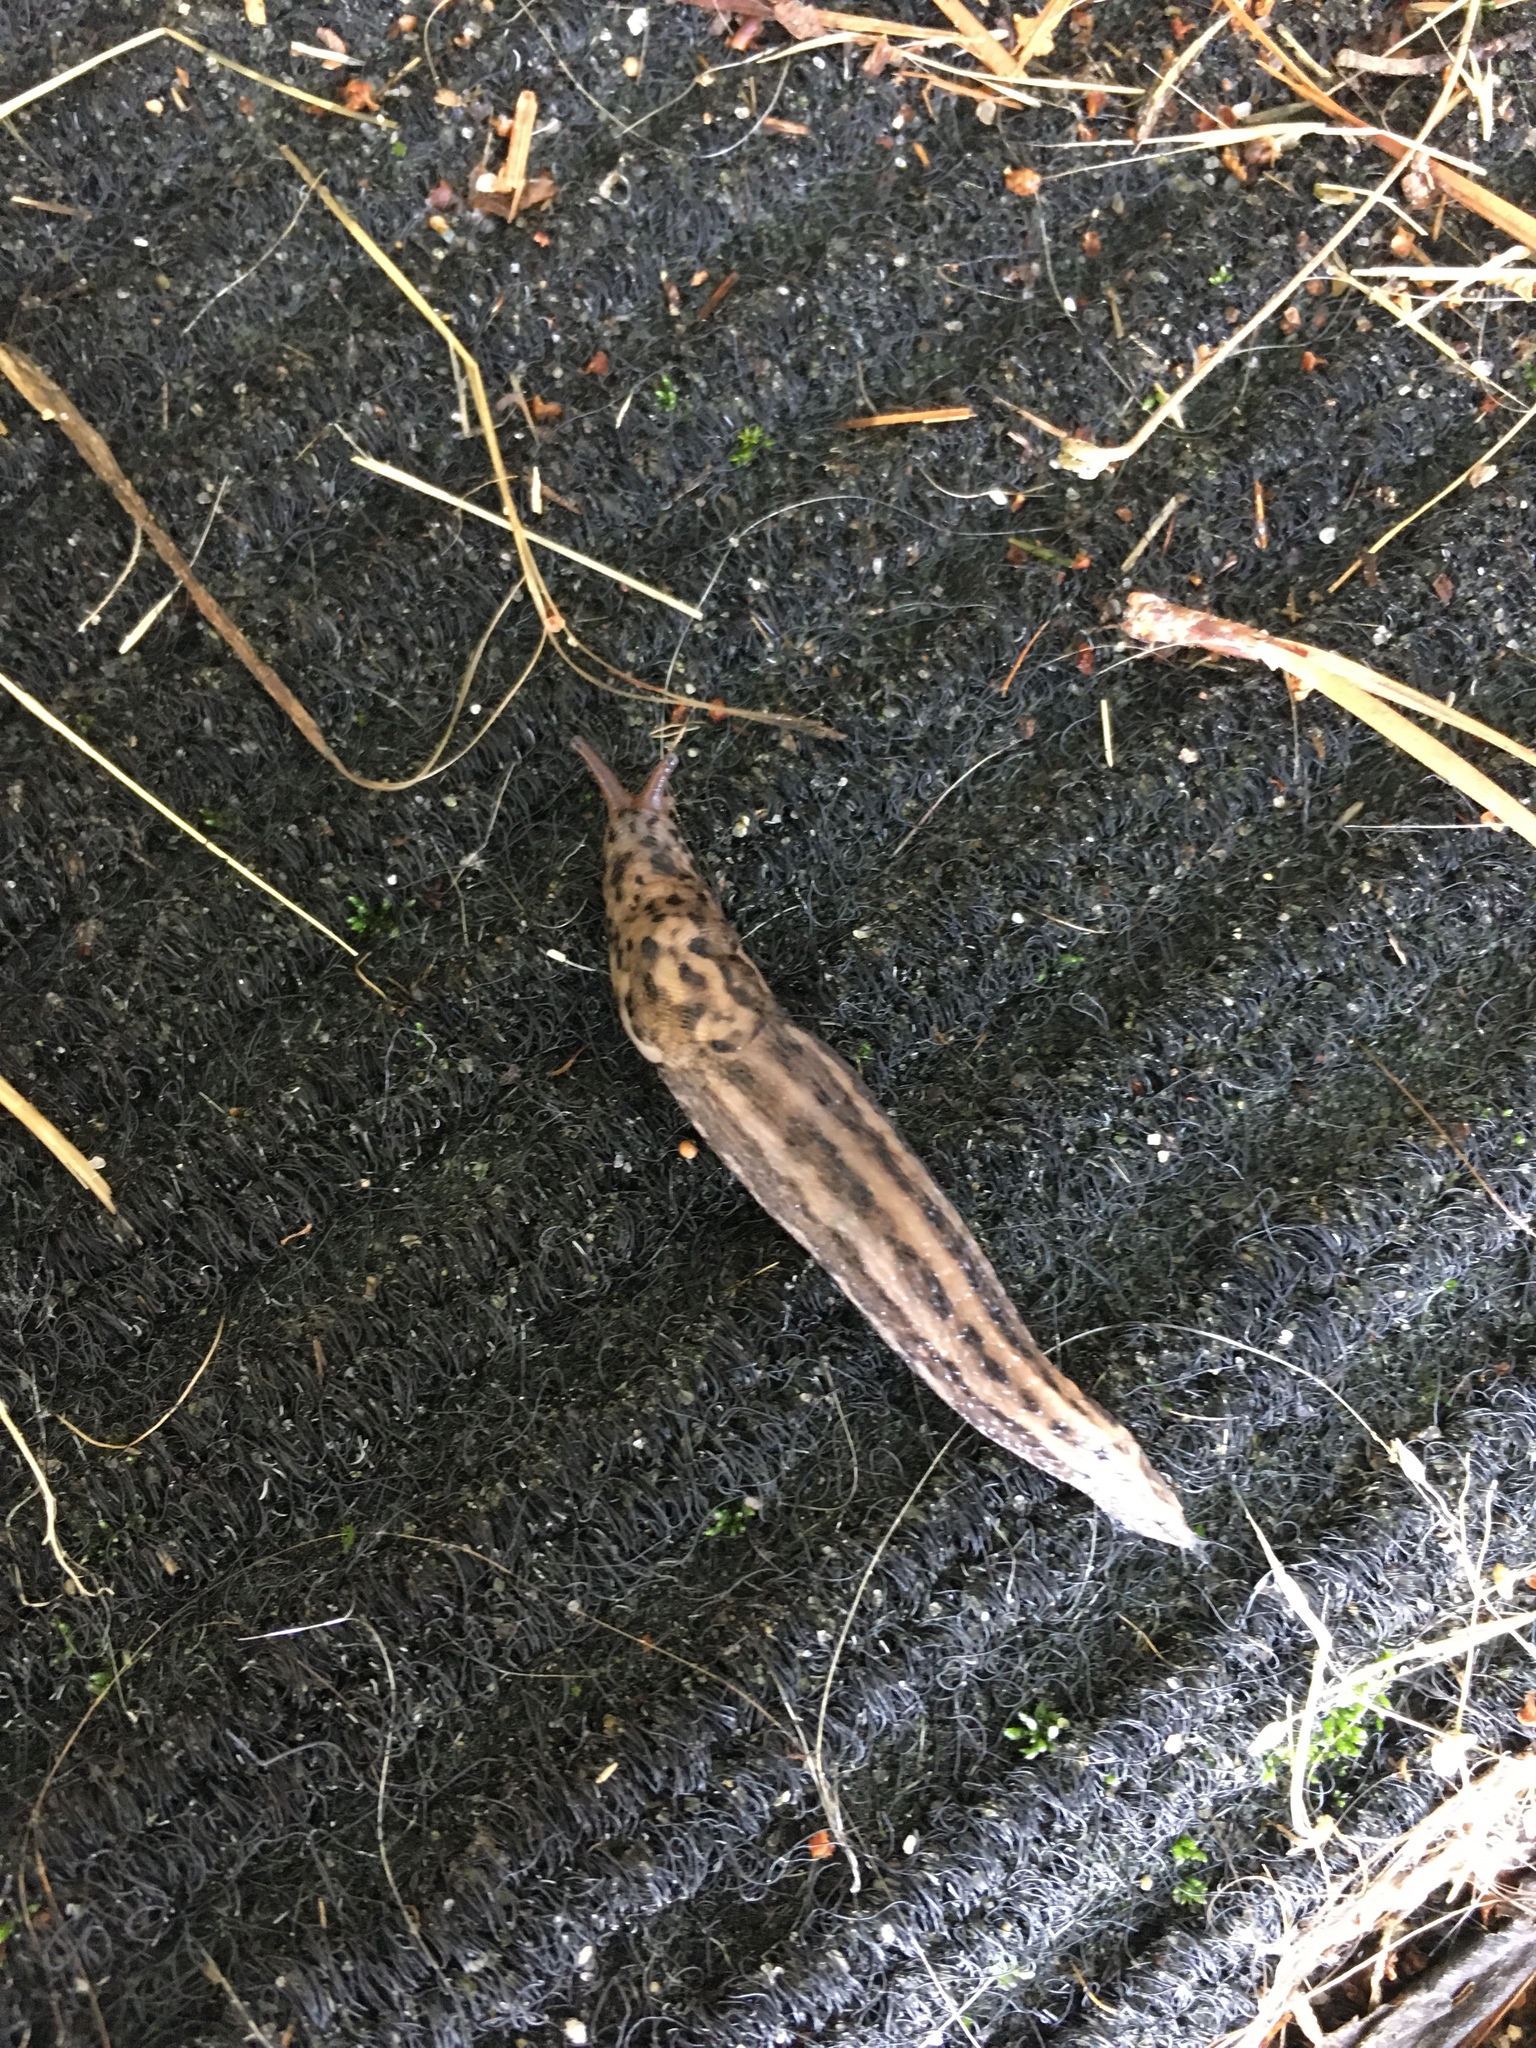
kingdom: Animalia
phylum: Mollusca
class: Gastropoda
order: Stylommatophora
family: Limacidae
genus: Limax
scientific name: Limax maximus
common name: Great grey slug
